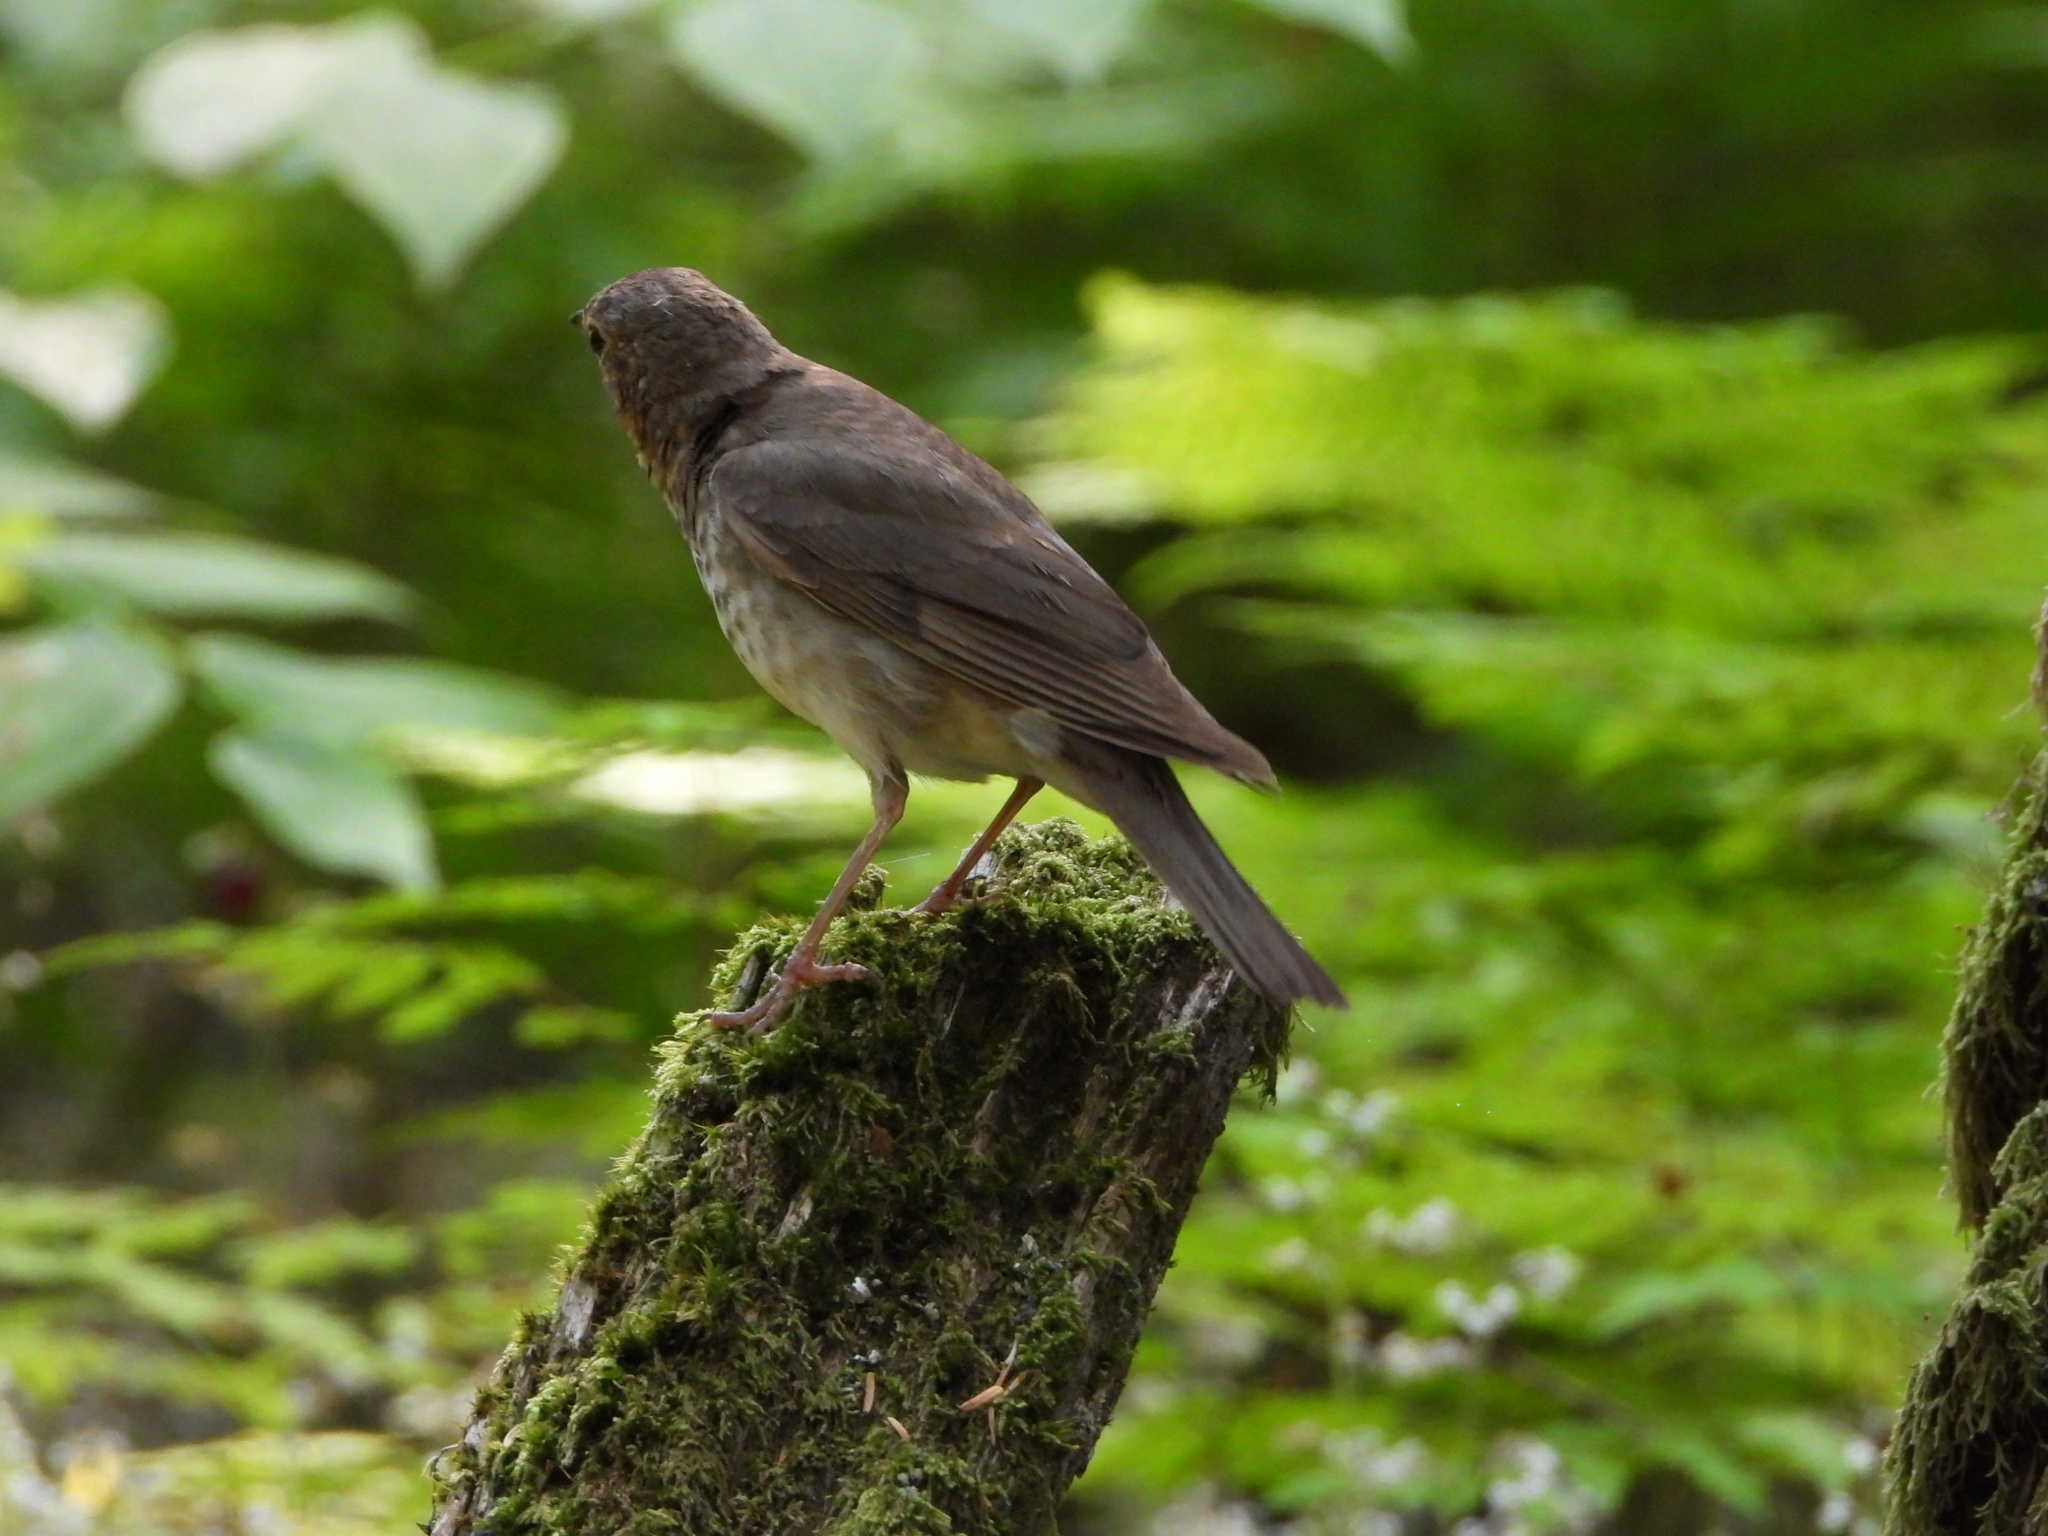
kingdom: Animalia
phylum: Chordata
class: Aves
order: Passeriformes
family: Turdidae
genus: Catharus
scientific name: Catharus ustulatus
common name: Swainson's thrush
